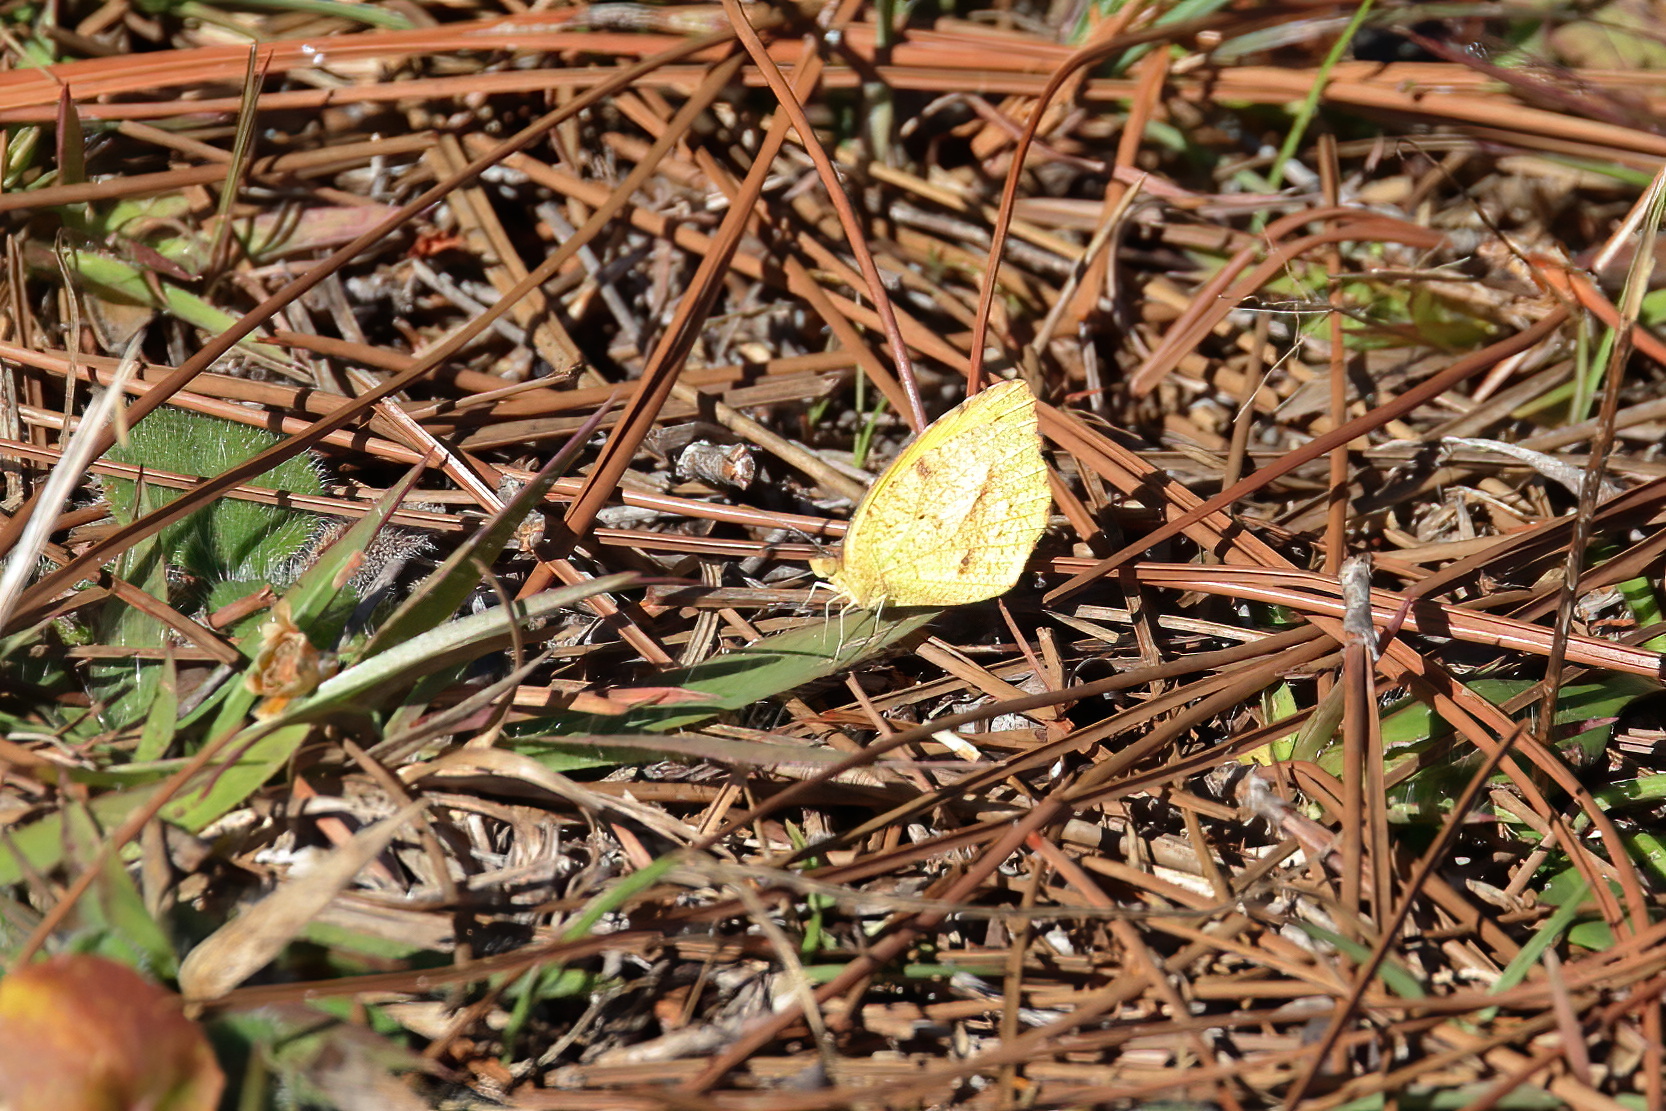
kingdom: Animalia
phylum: Arthropoda
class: Insecta
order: Lepidoptera
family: Pieridae
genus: Abaeis
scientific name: Abaeis nicippe
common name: Sleepy orange
